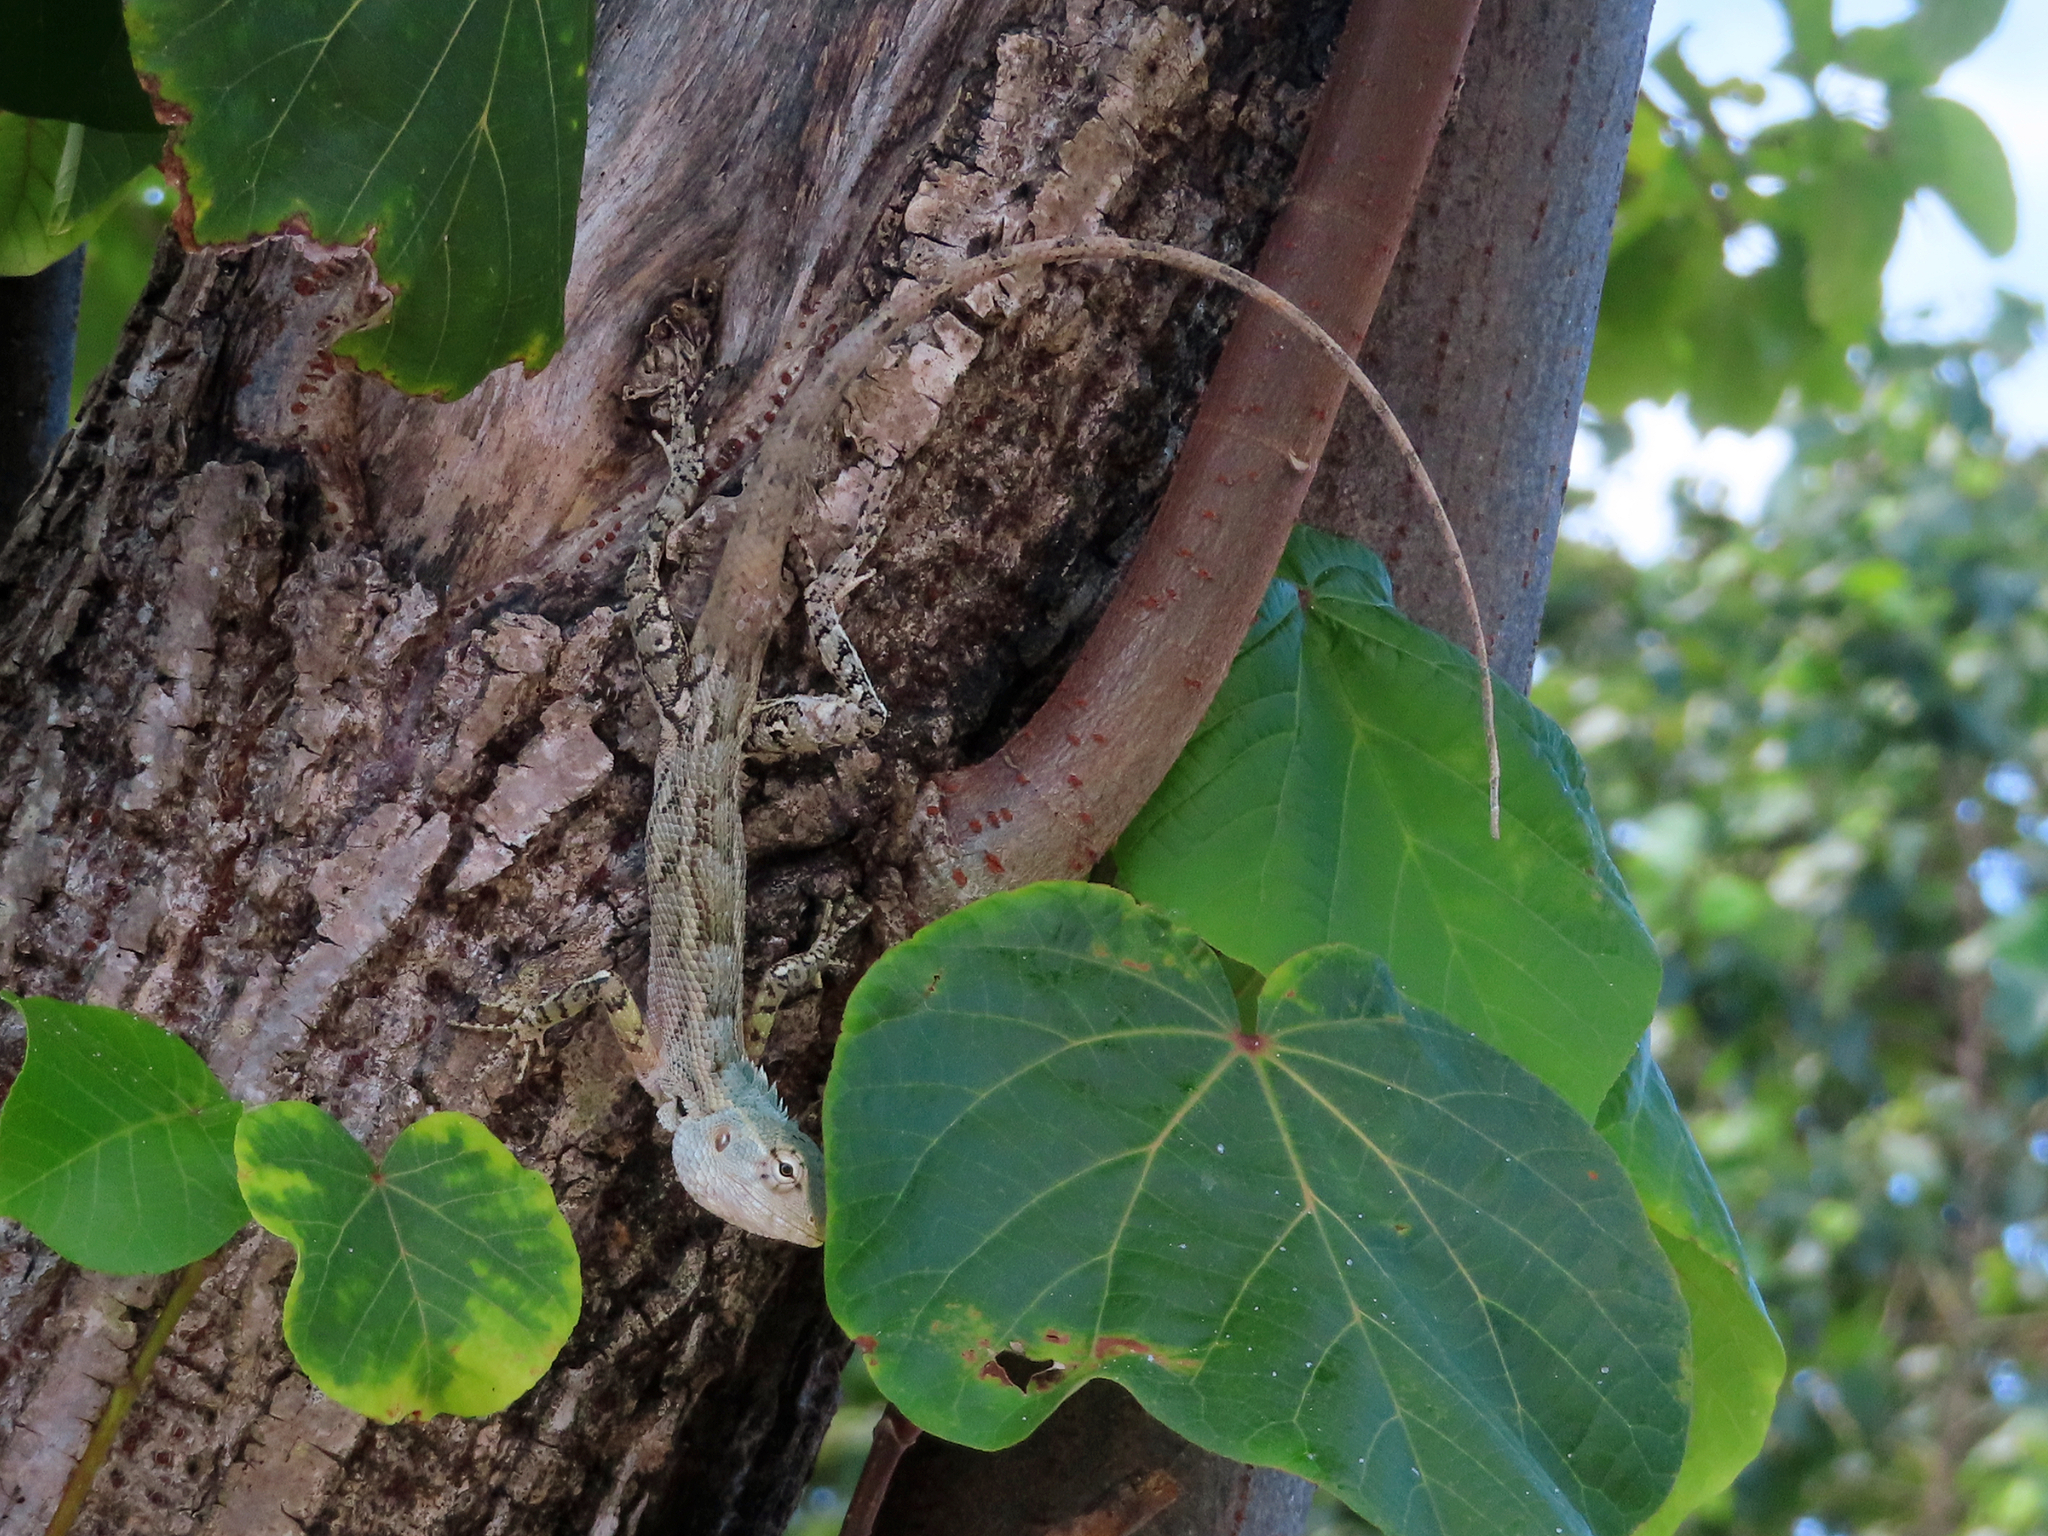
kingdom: Animalia
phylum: Chordata
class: Squamata
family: Agamidae
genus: Calotes
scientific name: Calotes versicolor
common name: Oriental garden lizard
